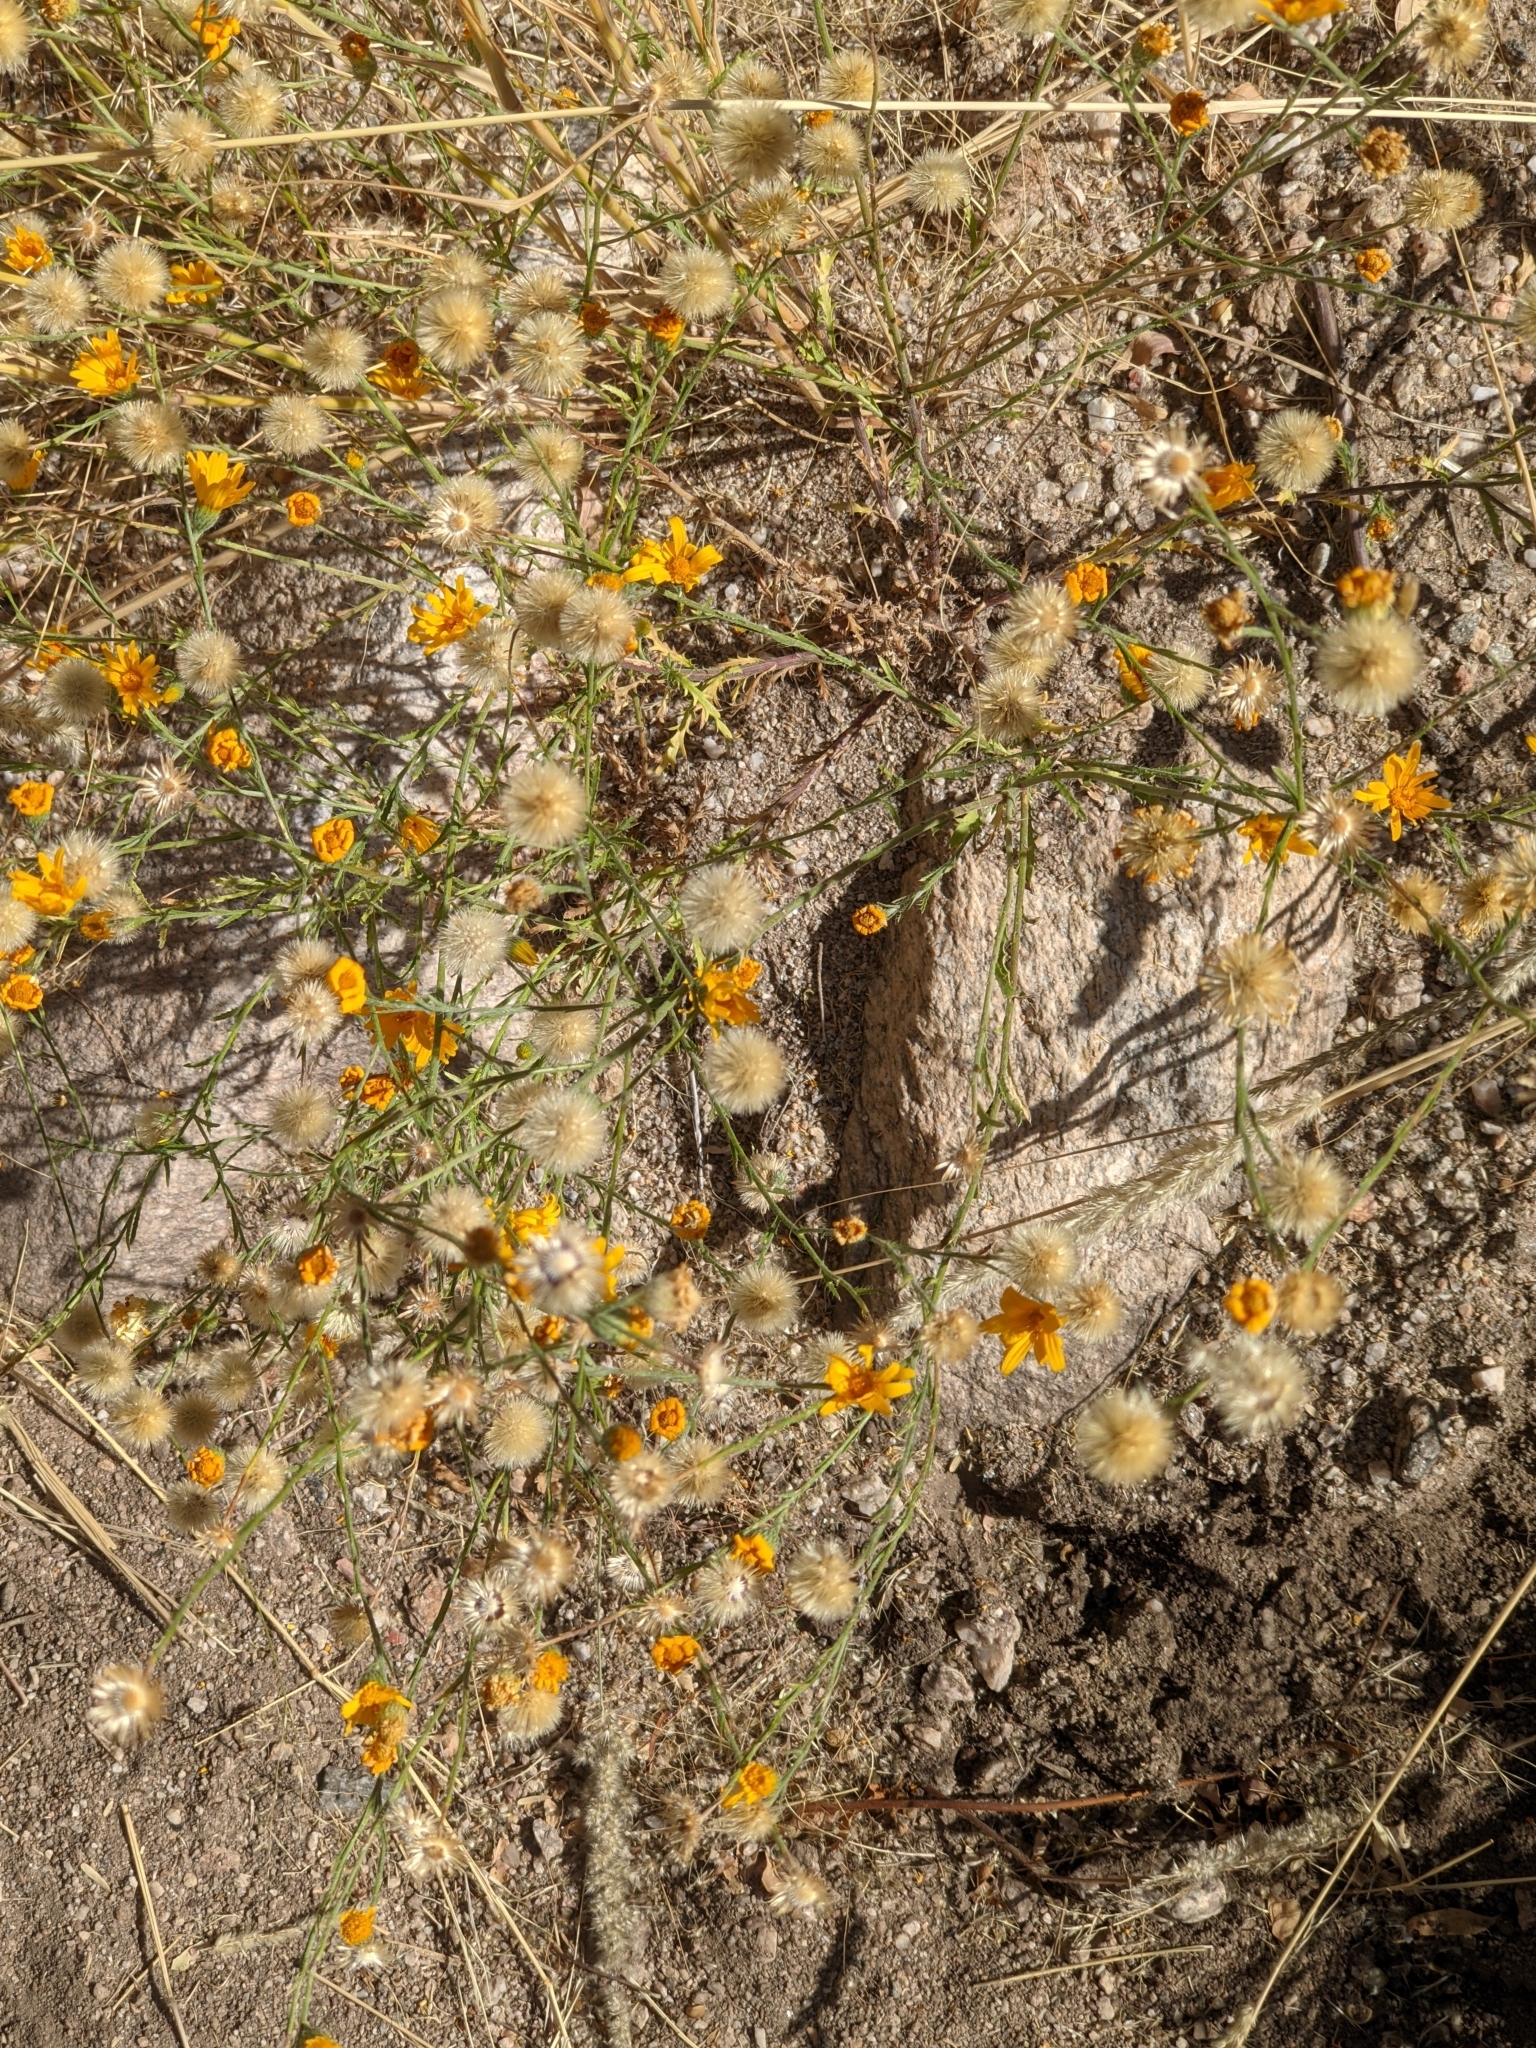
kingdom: Plantae
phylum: Tracheophyta
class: Magnoliopsida
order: Asterales
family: Asteraceae
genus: Xanthisma
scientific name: Xanthisma gracile
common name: Slender goldenweed
